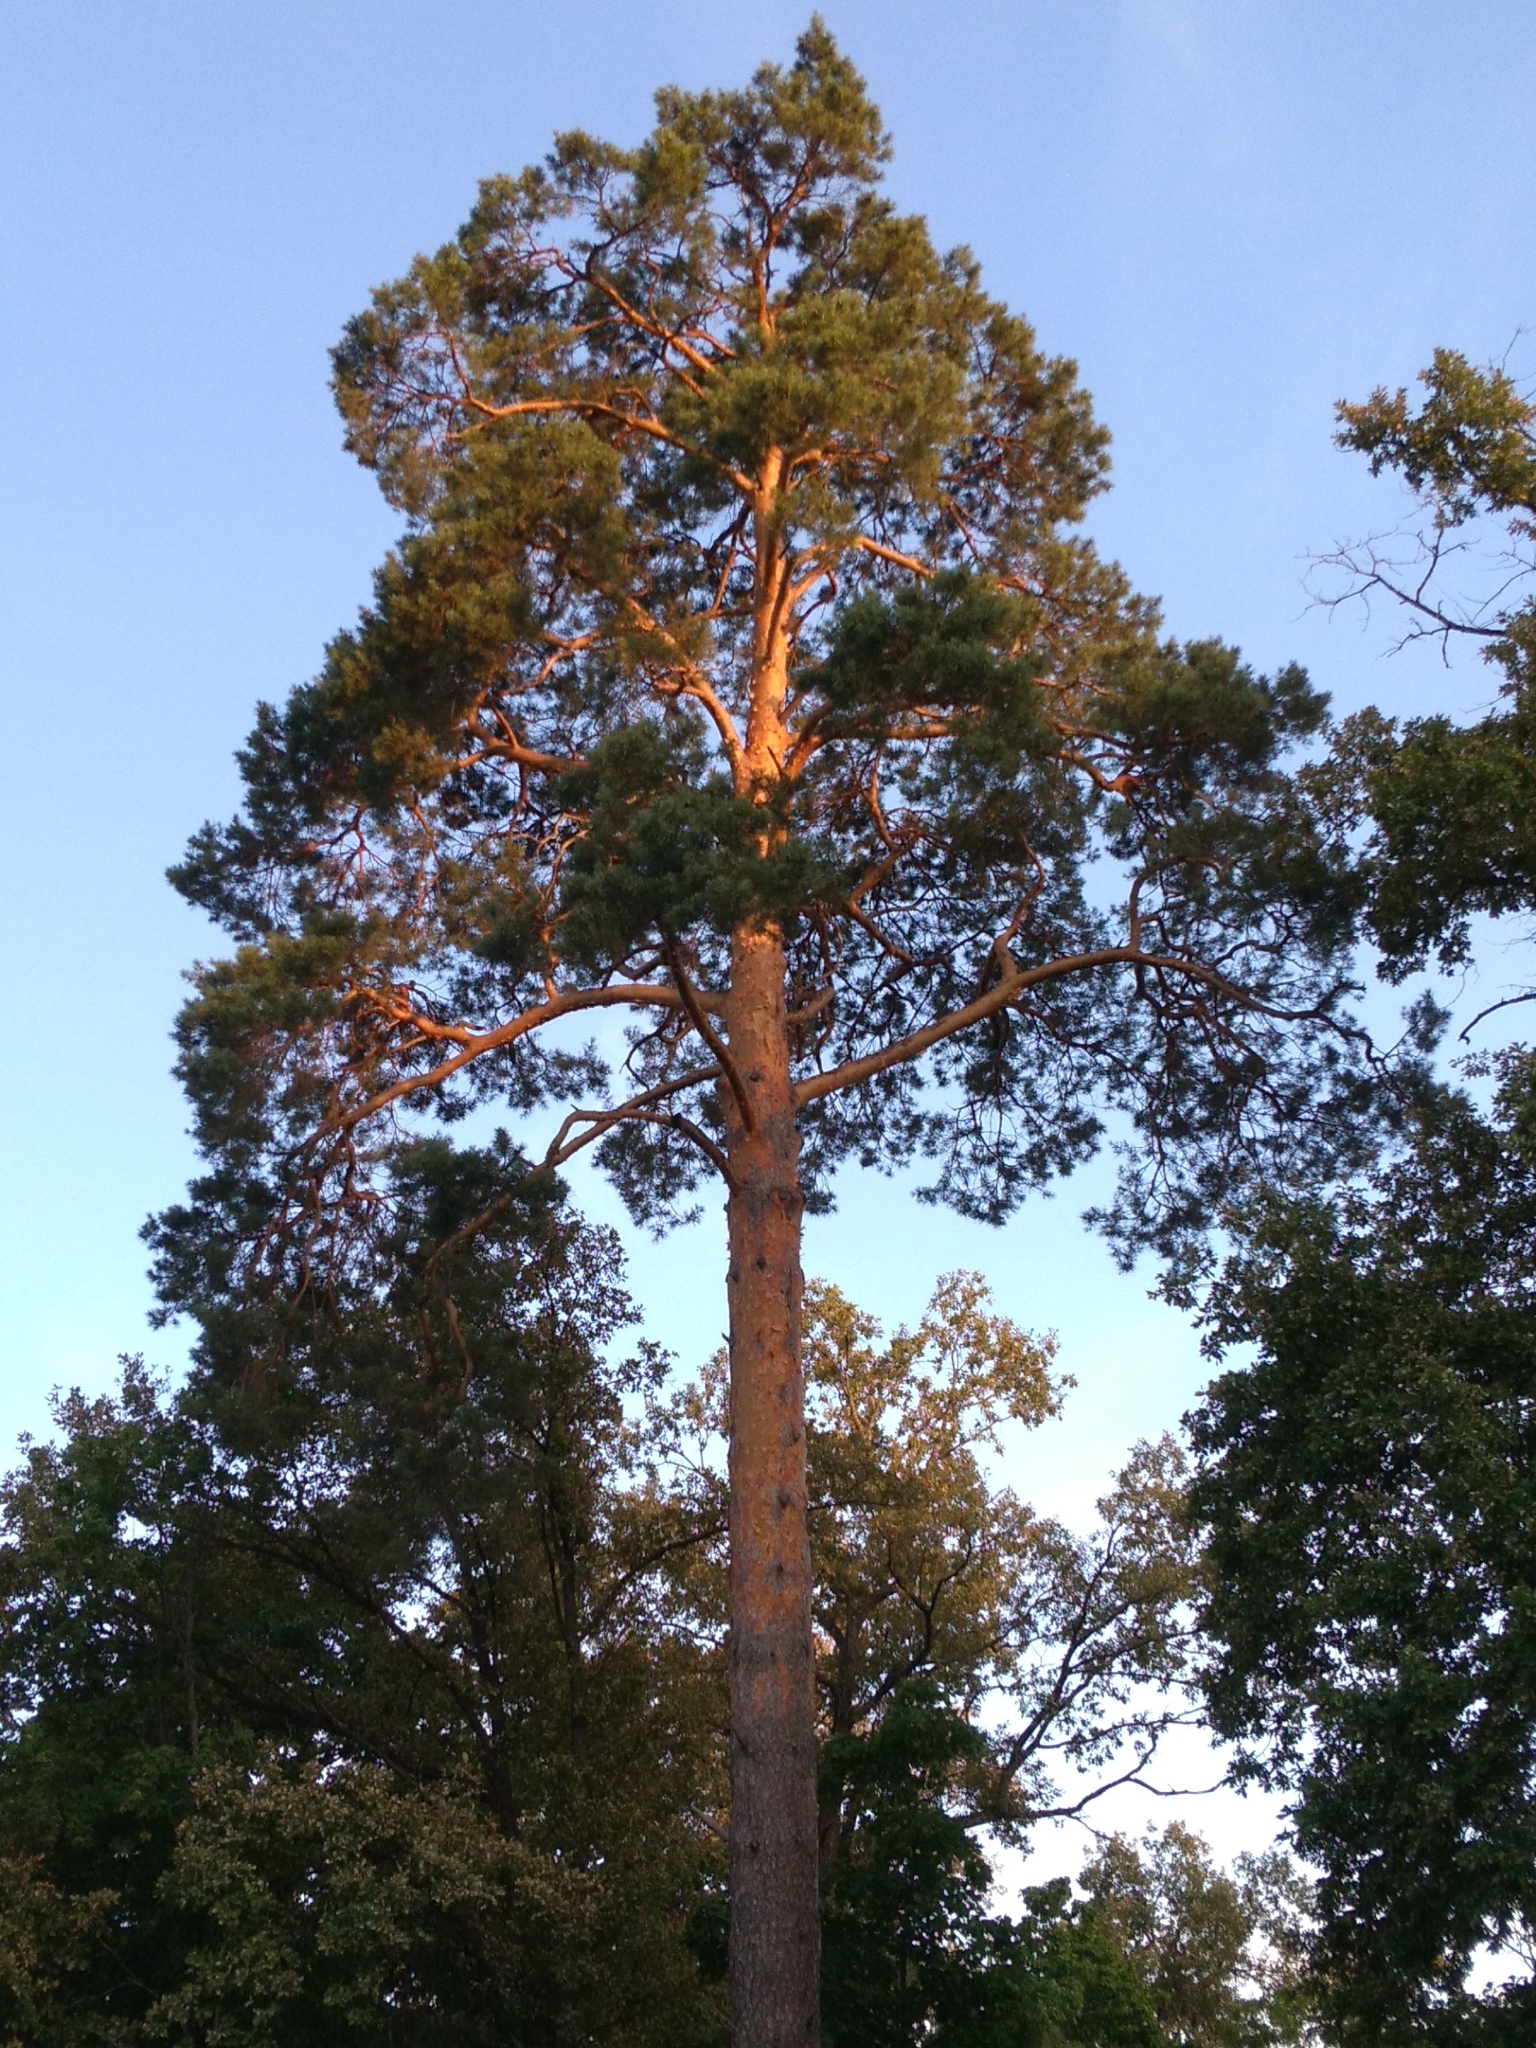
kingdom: Plantae
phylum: Tracheophyta
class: Pinopsida
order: Pinales
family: Pinaceae
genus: Pinus
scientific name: Pinus sylvestris
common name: Scots pine
